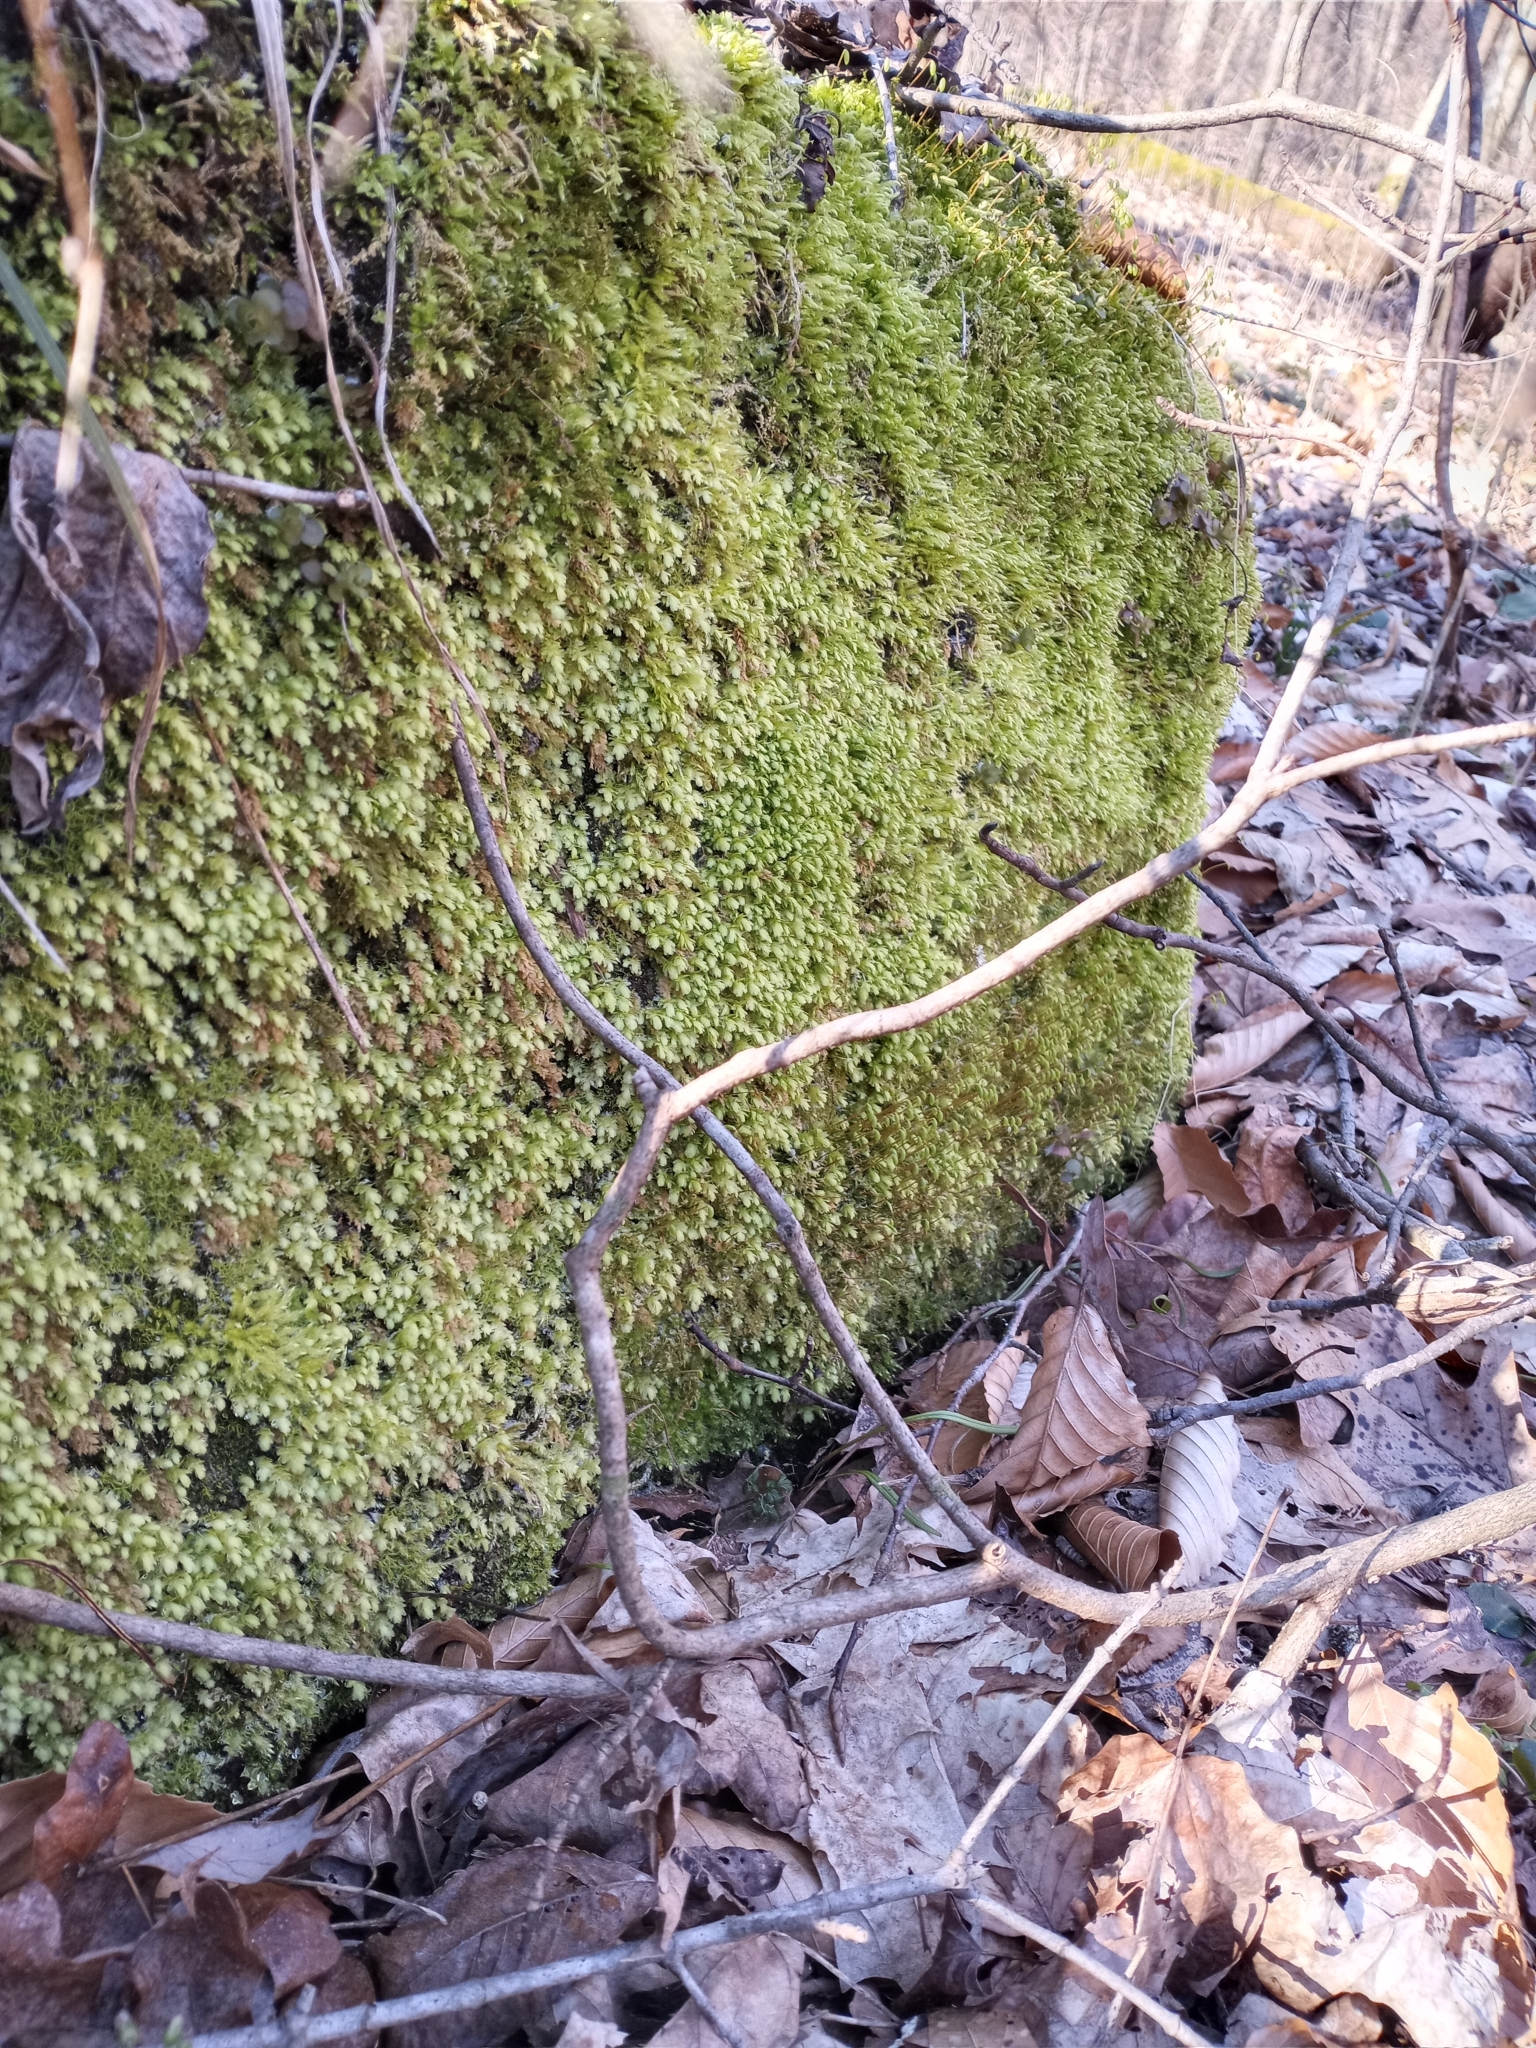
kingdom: Plantae
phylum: Bryophyta
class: Bryopsida
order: Aulacomniales
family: Aulacomniaceae
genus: Aulacomnium
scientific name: Aulacomnium heterostichum
